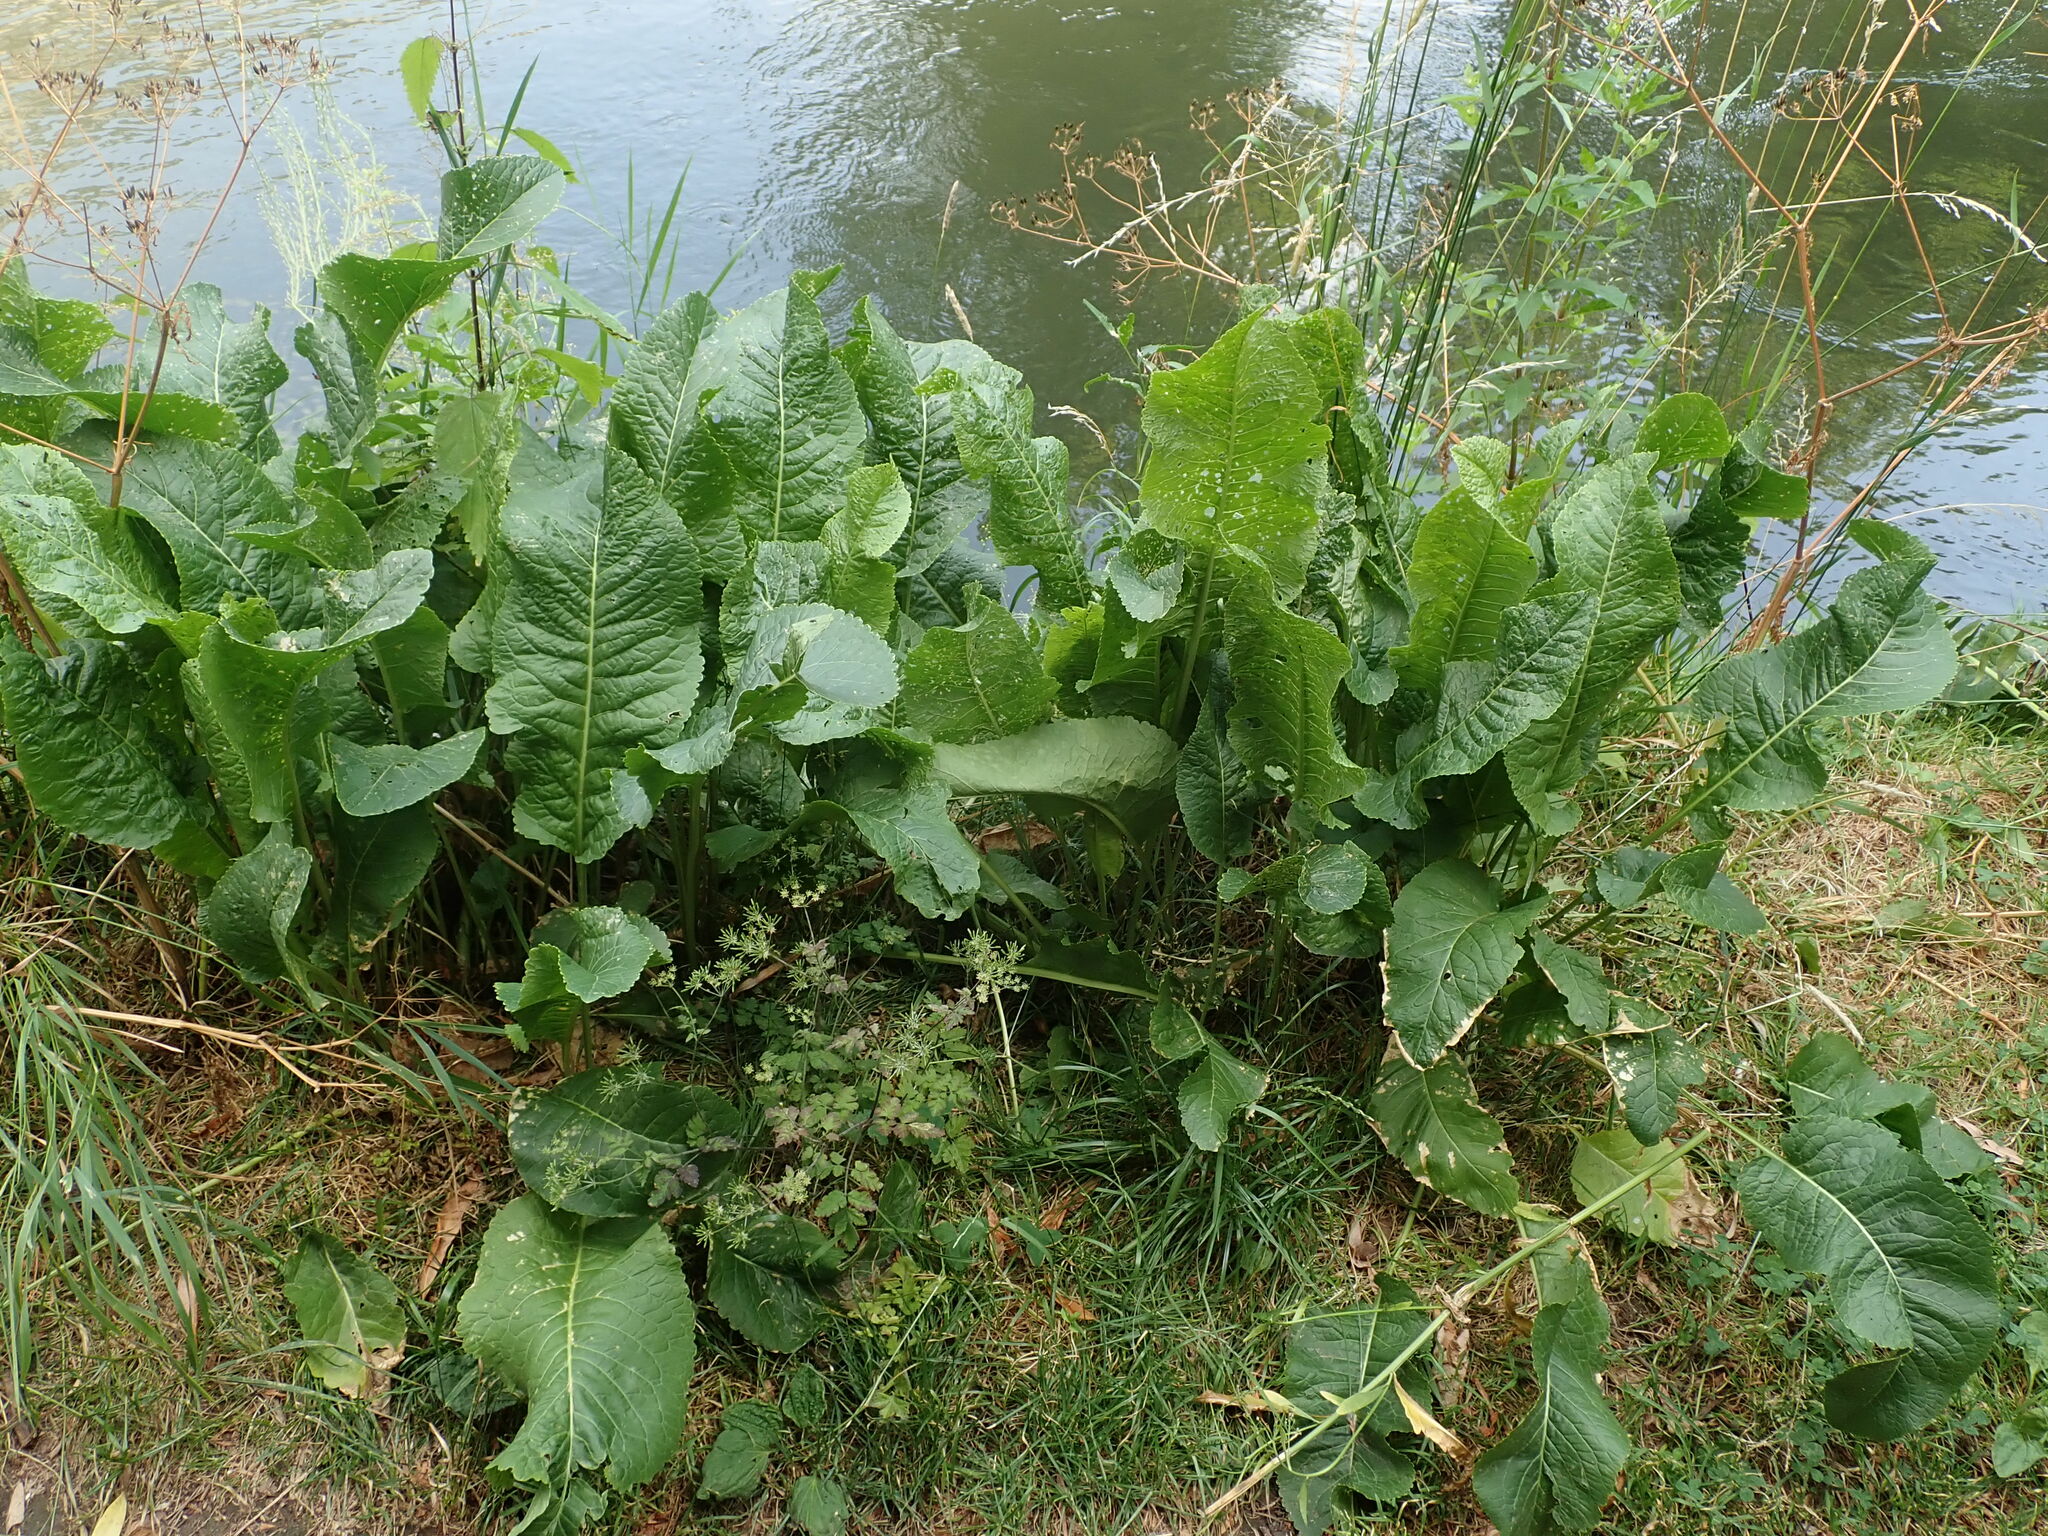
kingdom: Plantae
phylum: Tracheophyta
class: Magnoliopsida
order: Brassicales
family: Brassicaceae
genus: Armoracia
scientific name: Armoracia rusticana
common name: Horseradish
